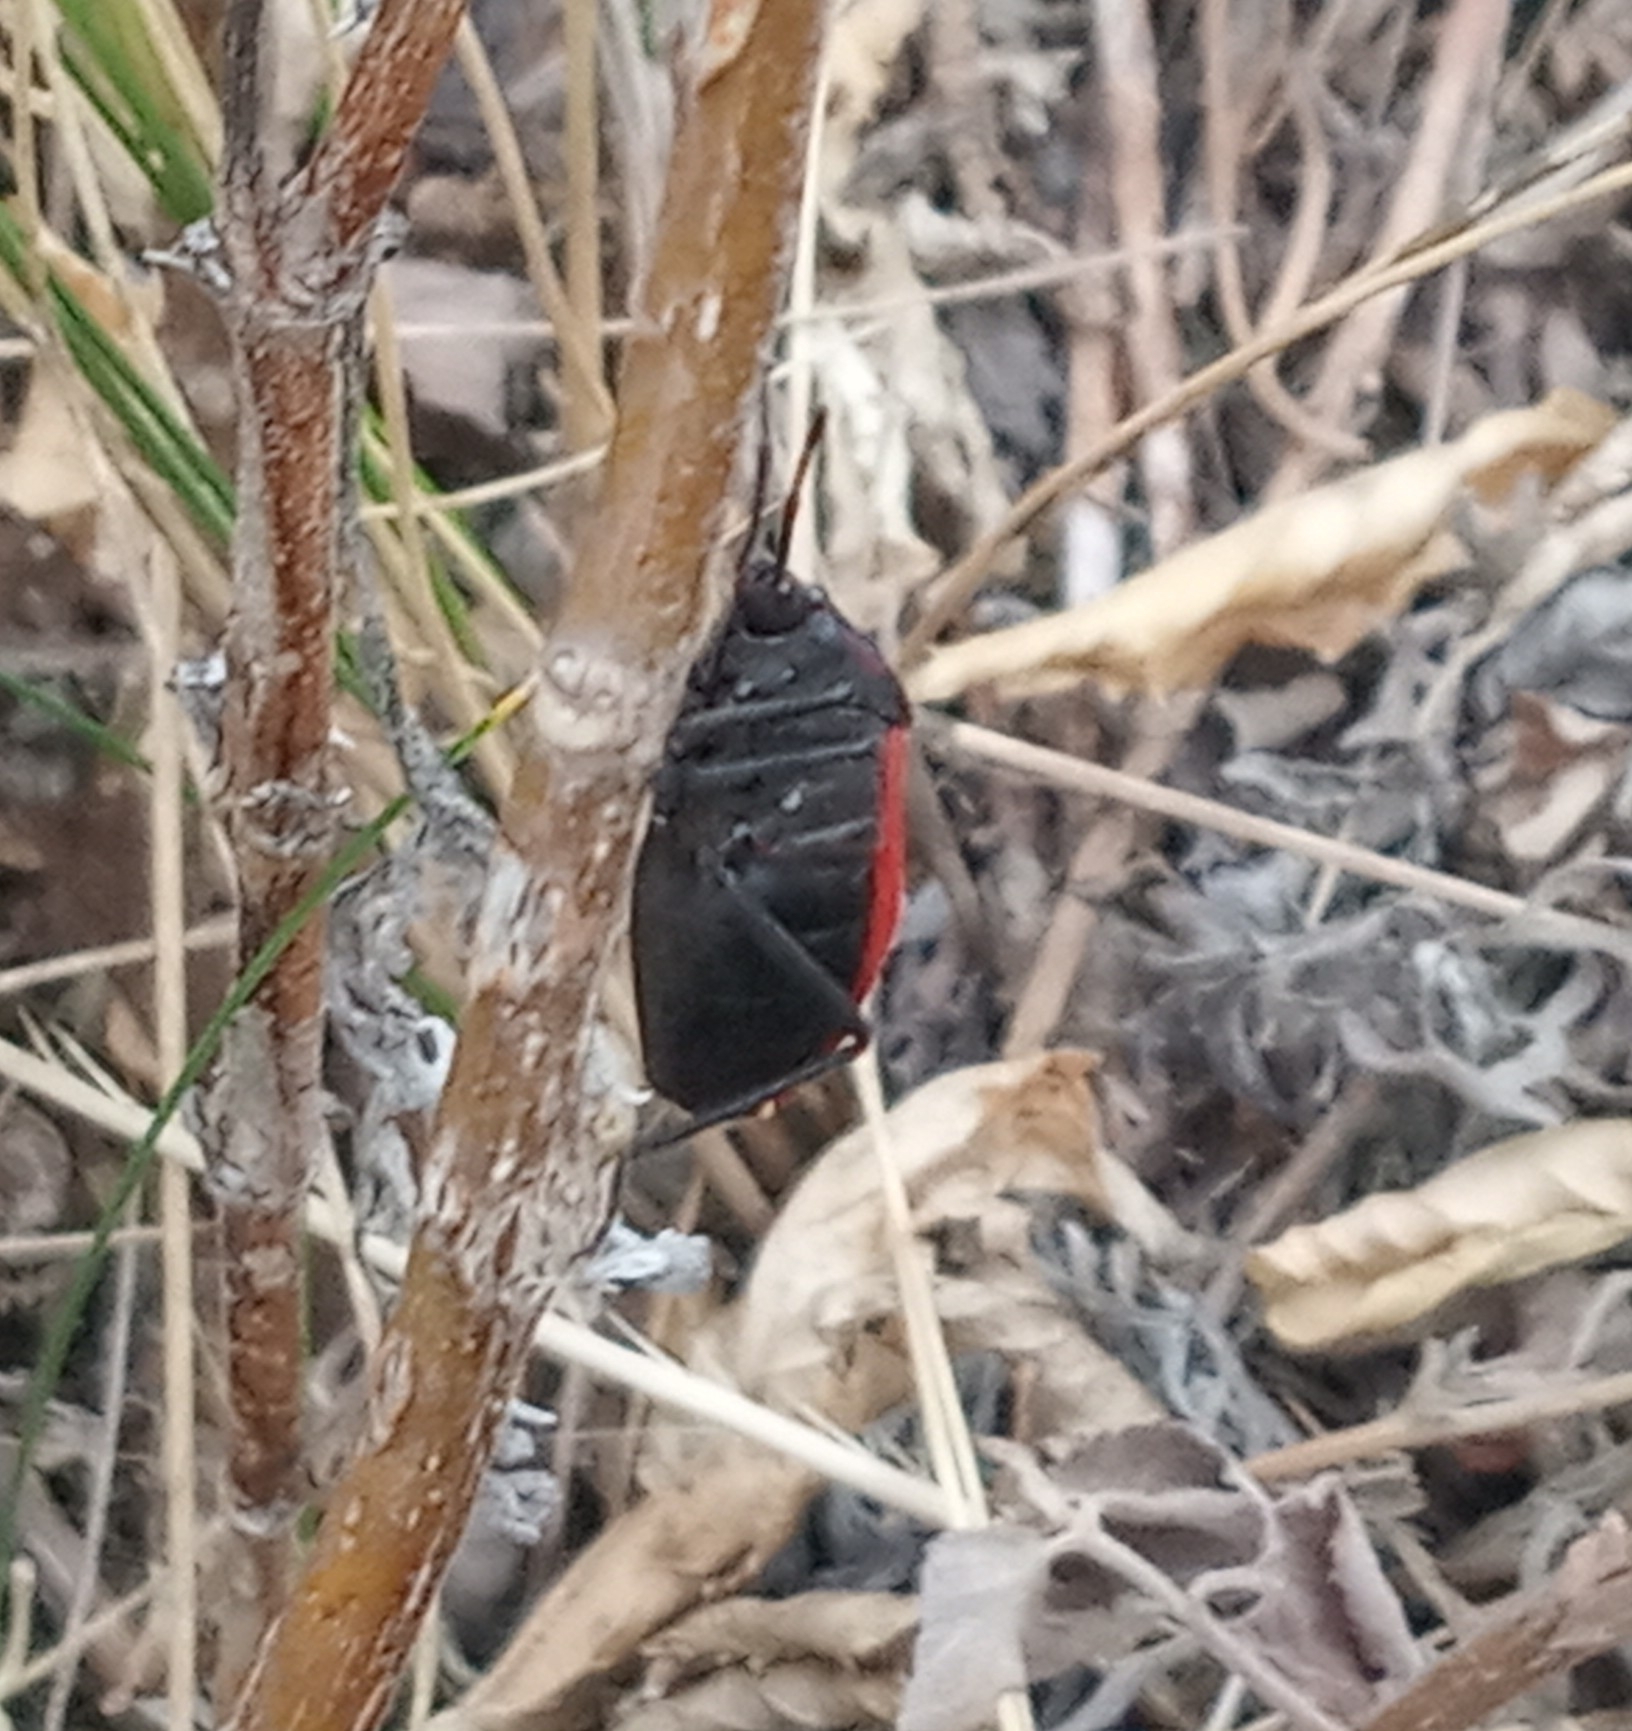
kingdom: Animalia
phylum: Arthropoda
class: Insecta
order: Hemiptera
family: Largidae
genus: Largus
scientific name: Largus rufipennis
